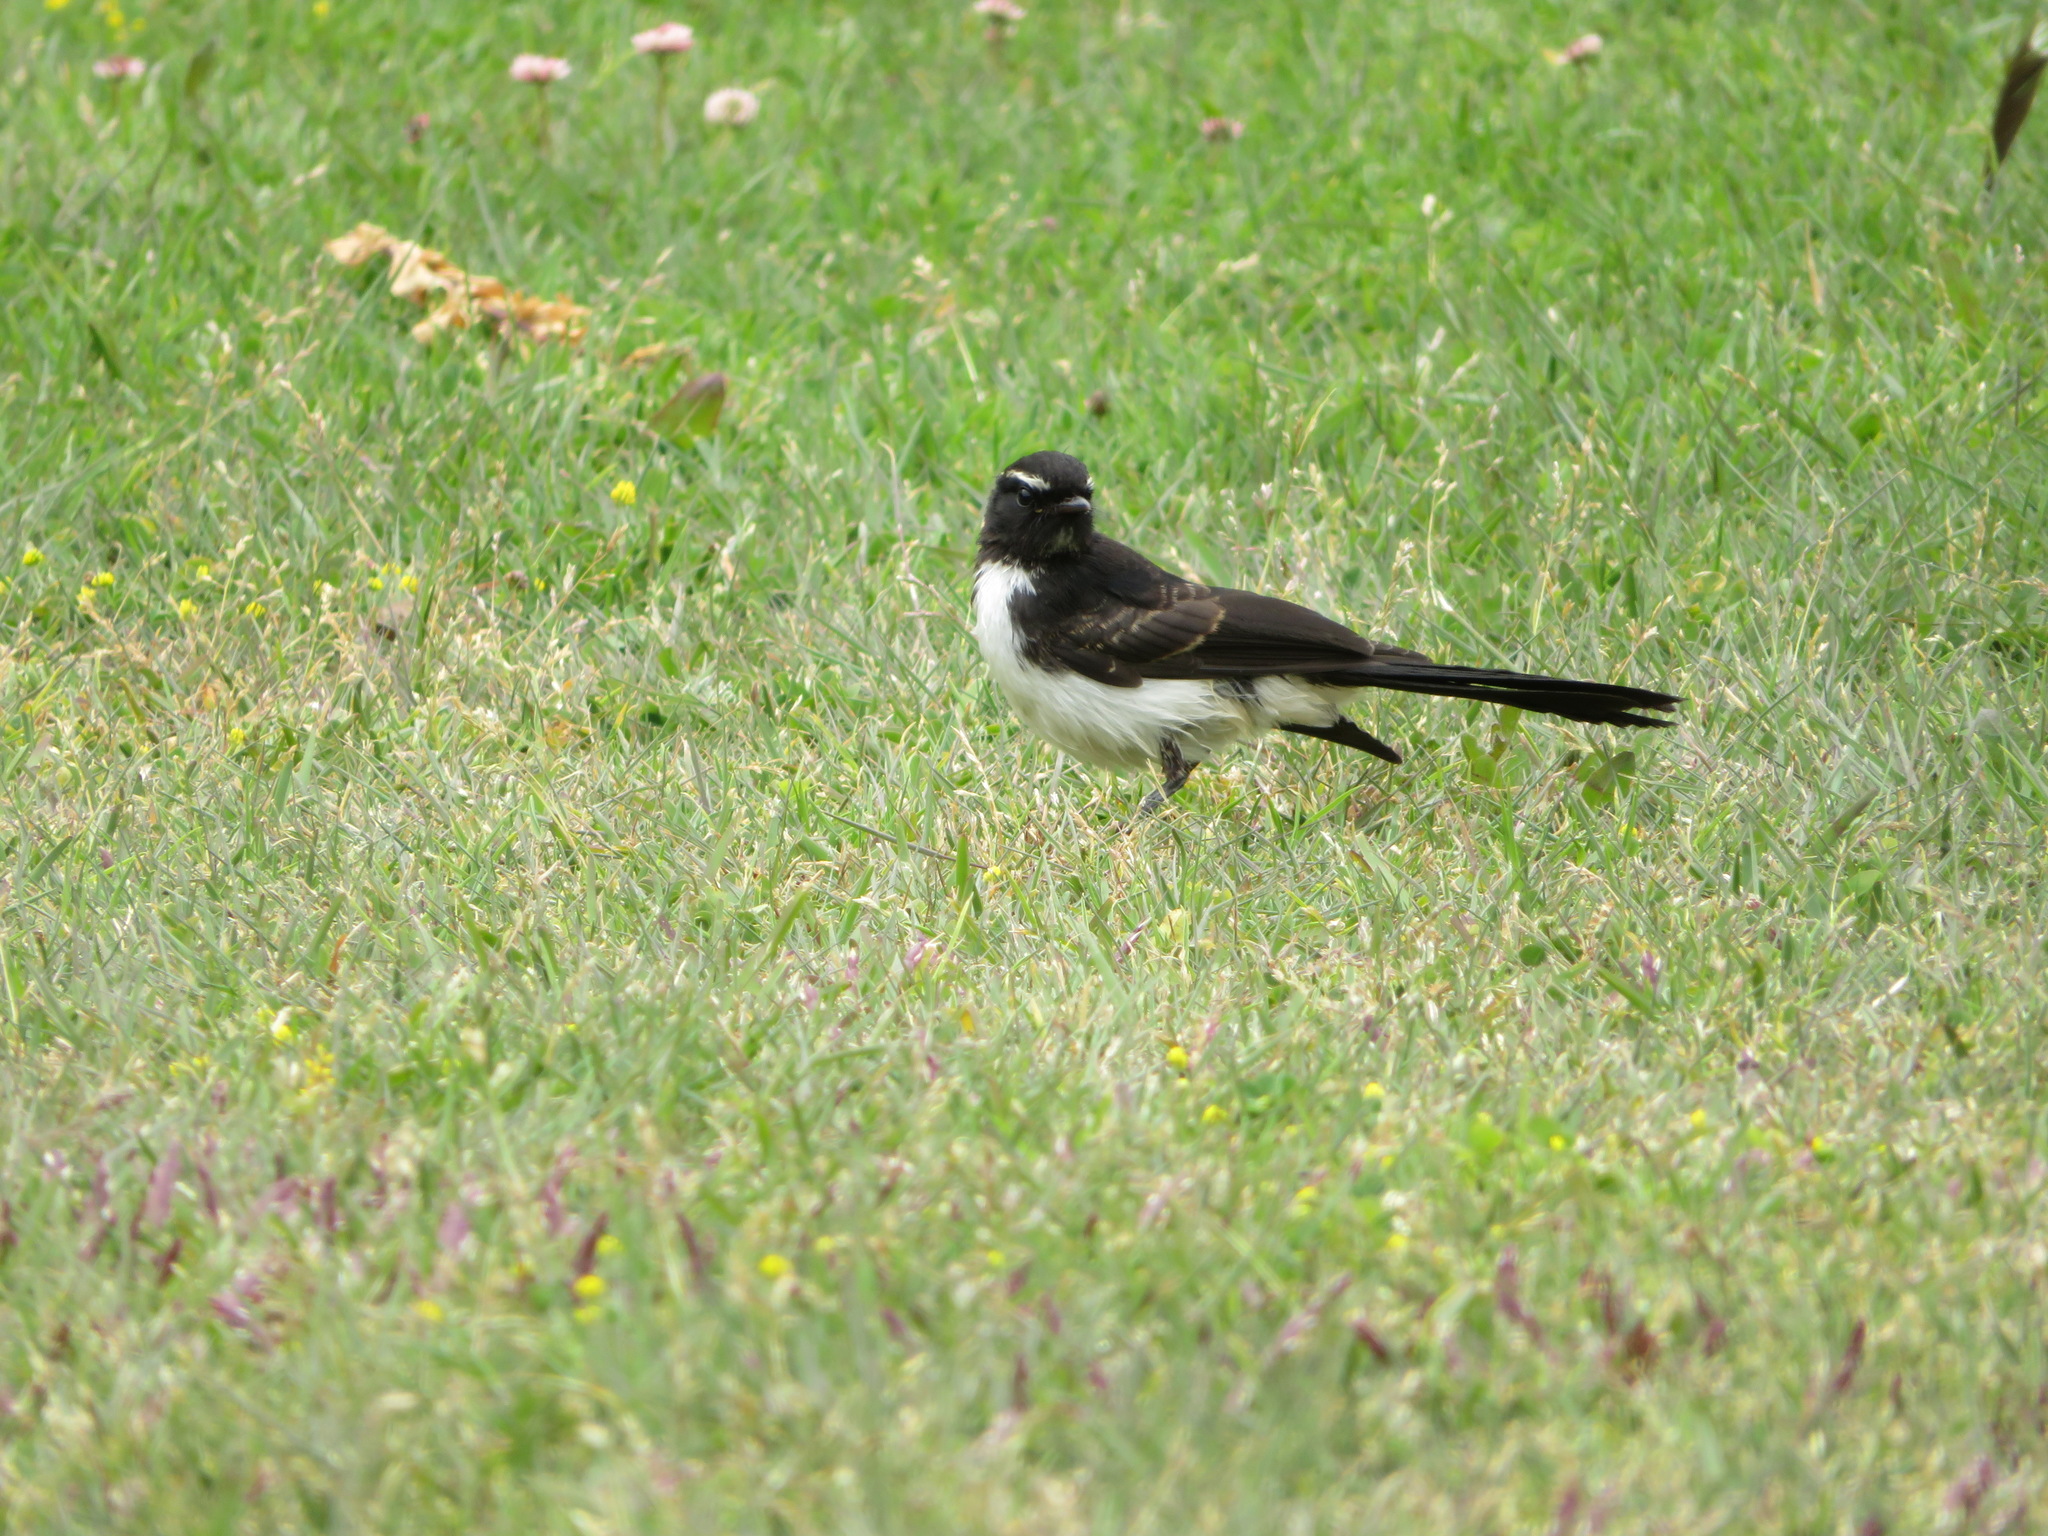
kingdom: Animalia
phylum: Chordata
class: Aves
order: Passeriformes
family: Rhipiduridae
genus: Rhipidura
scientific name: Rhipidura leucophrys
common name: Willie wagtail
